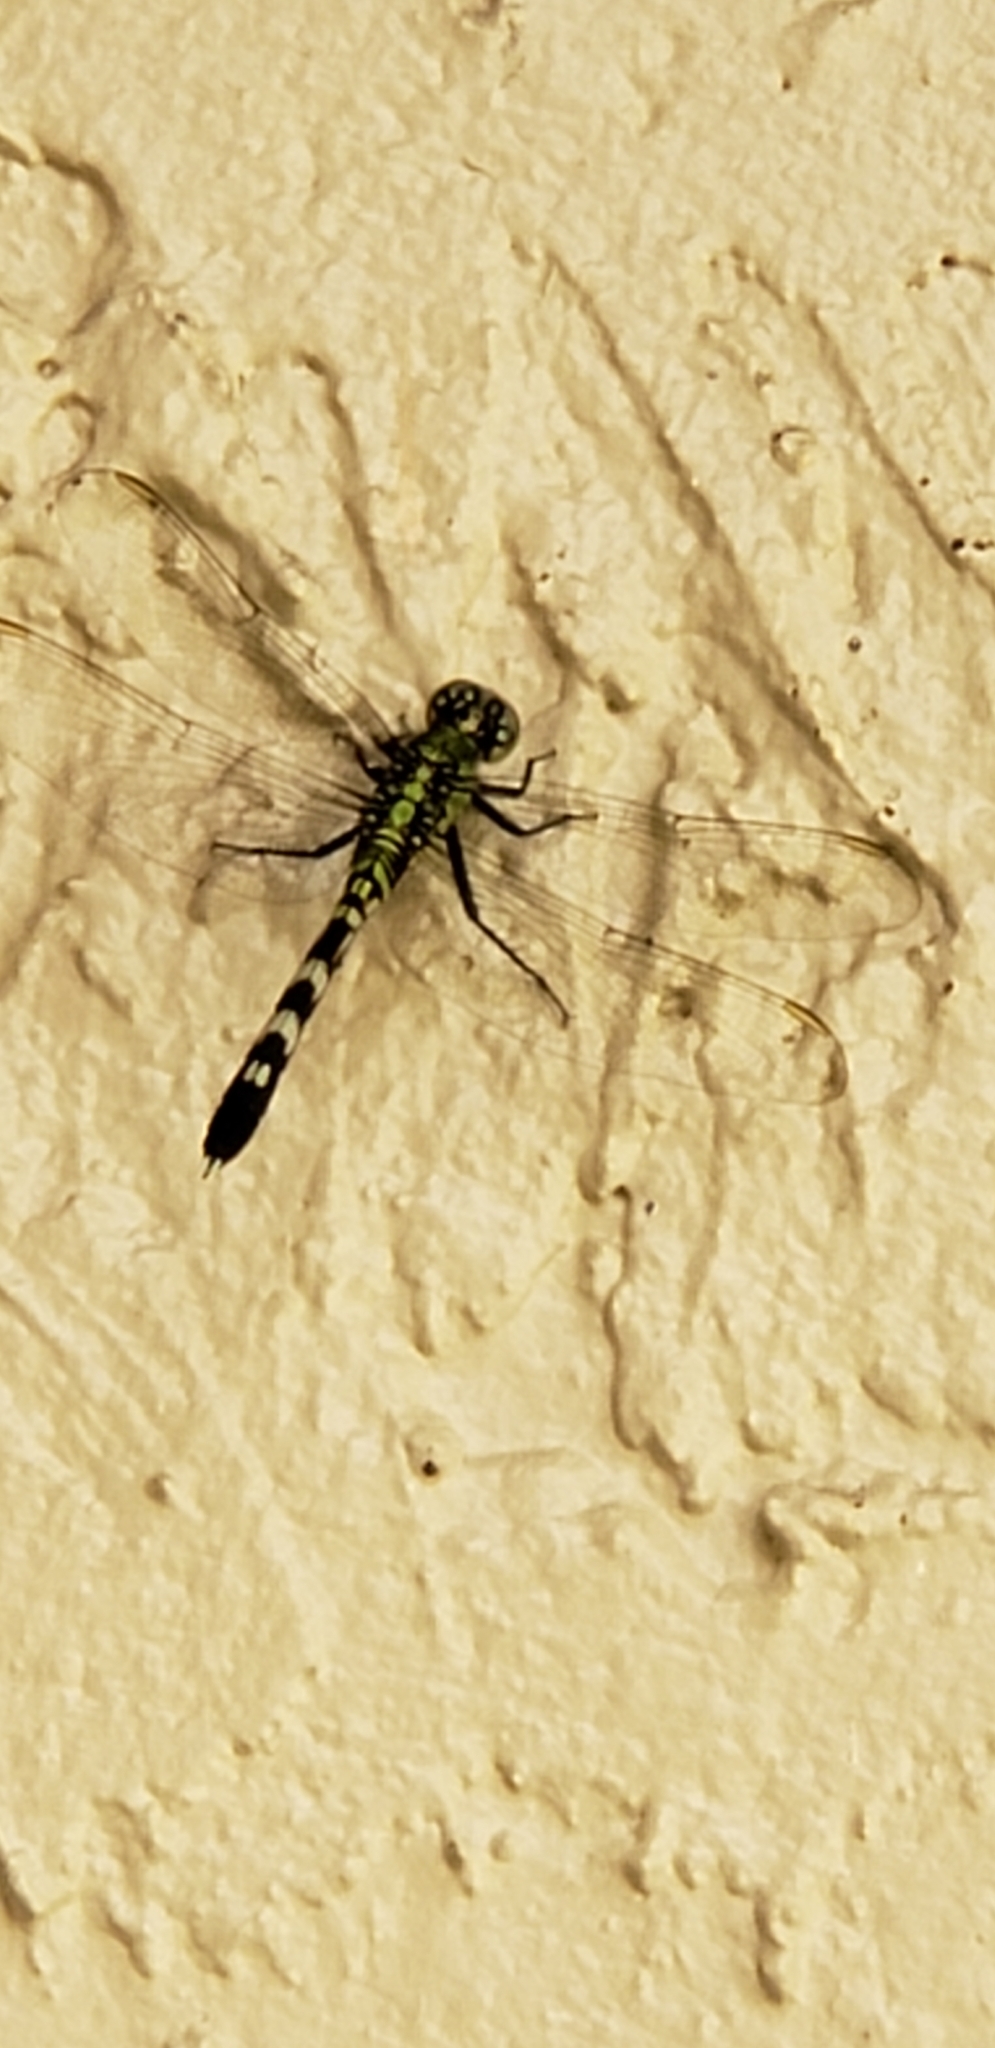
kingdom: Animalia
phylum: Arthropoda
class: Insecta
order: Odonata
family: Libellulidae
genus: Erythemis
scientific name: Erythemis simplicicollis
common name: Eastern pondhawk
